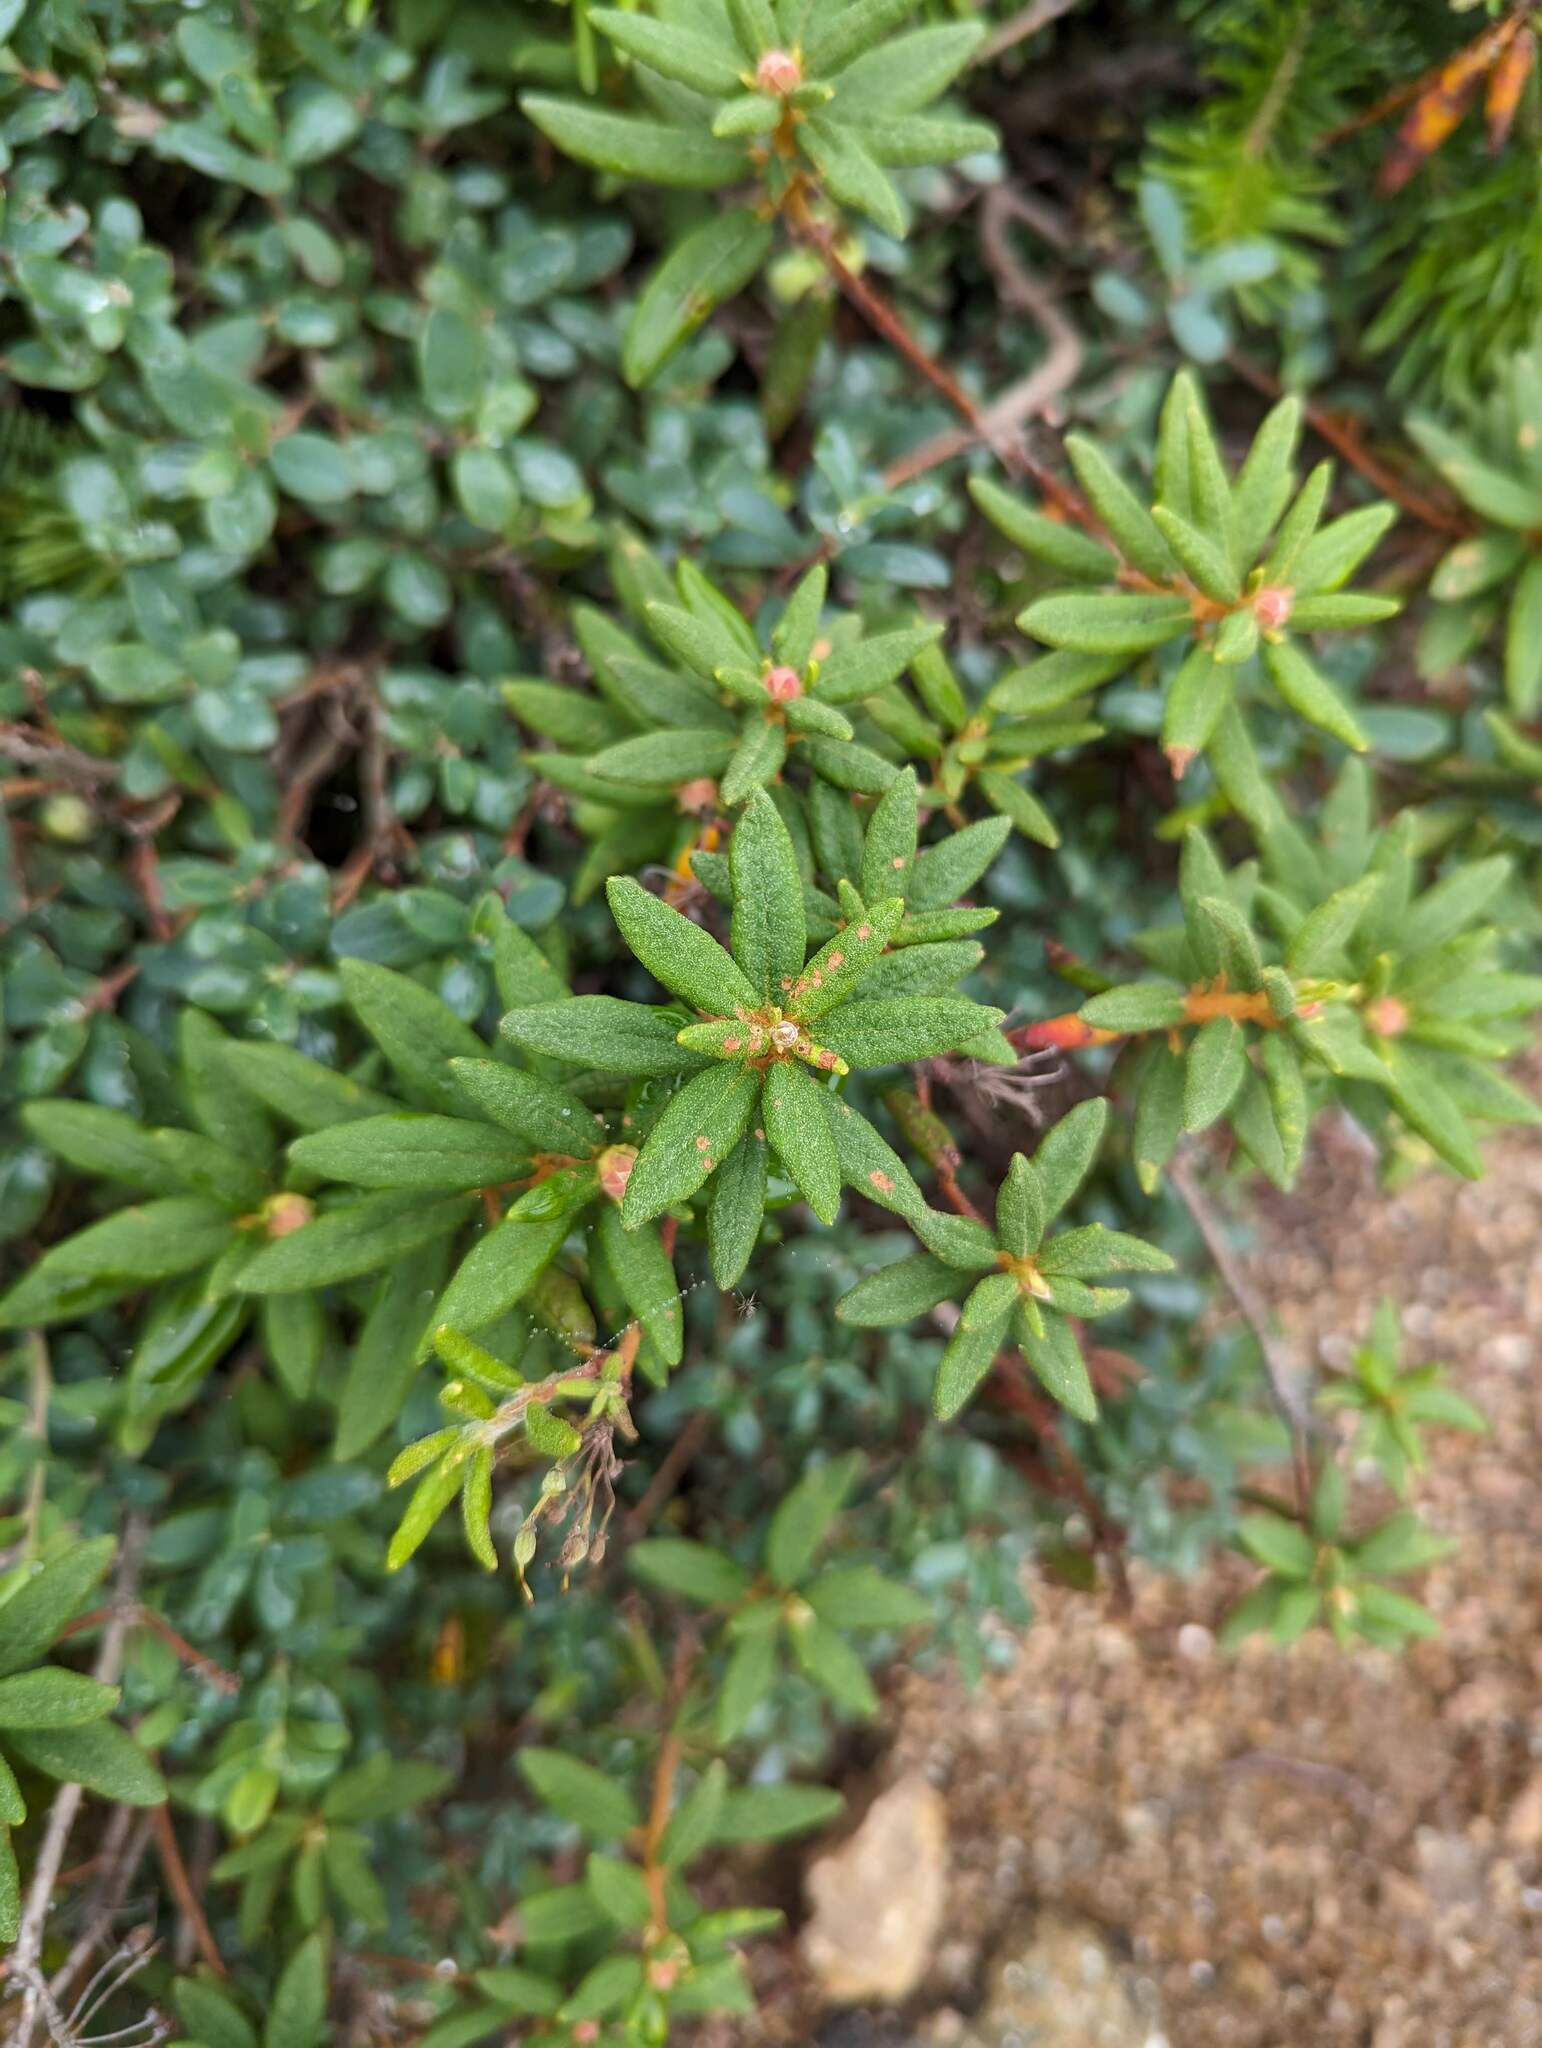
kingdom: Plantae
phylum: Tracheophyta
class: Magnoliopsida
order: Ericales
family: Ericaceae
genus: Rhododendron
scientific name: Rhododendron groenlandicum
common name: Bog labrador tea
